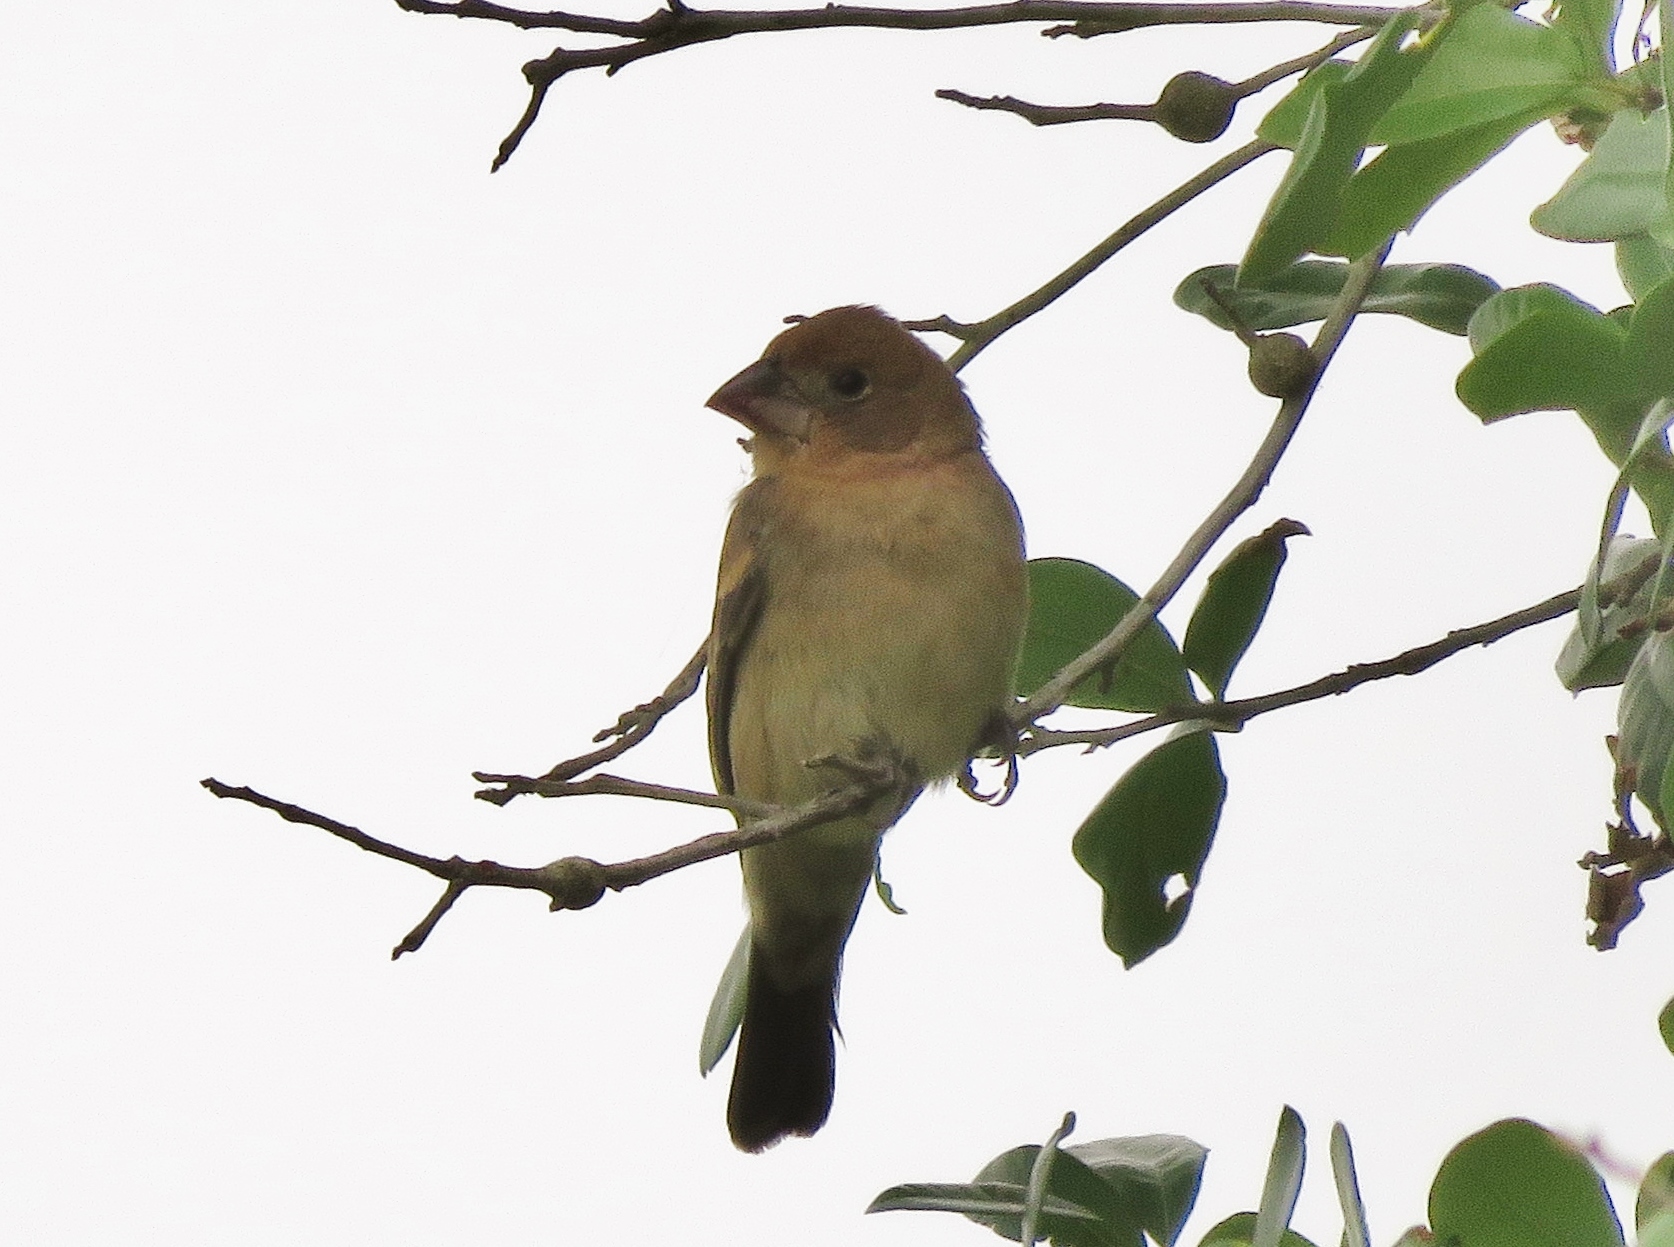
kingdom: Animalia
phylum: Chordata
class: Aves
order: Passeriformes
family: Cardinalidae
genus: Passerina
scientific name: Passerina caerulea
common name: Blue grosbeak
